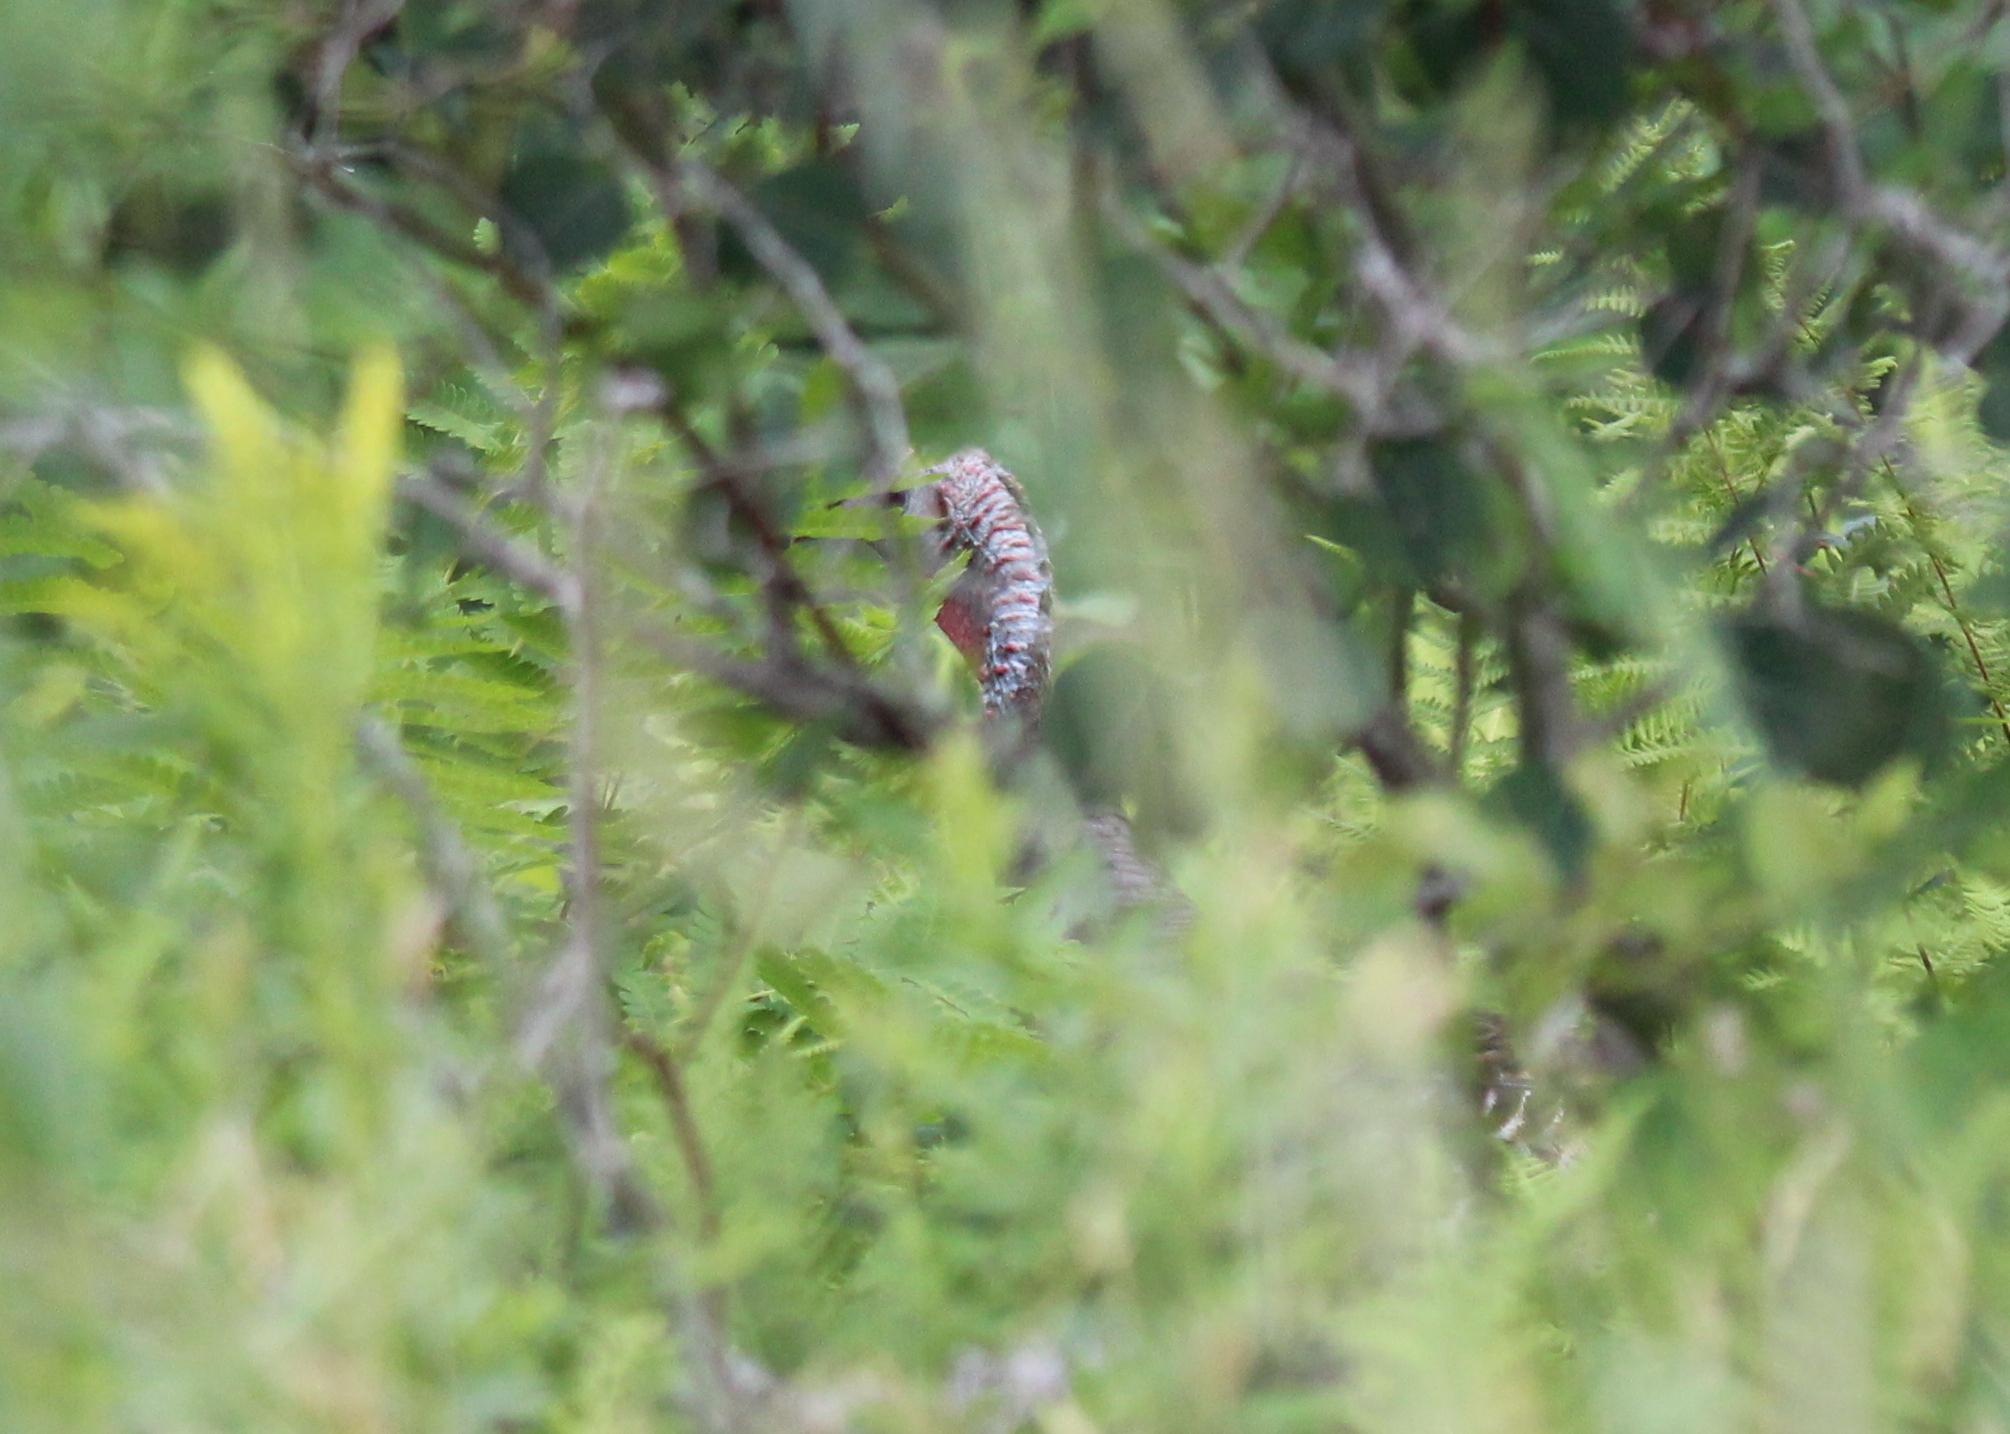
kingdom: Animalia
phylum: Chordata
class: Aves
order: Galliformes
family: Phasianidae
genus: Meleagris
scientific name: Meleagris gallopavo
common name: Wild turkey
